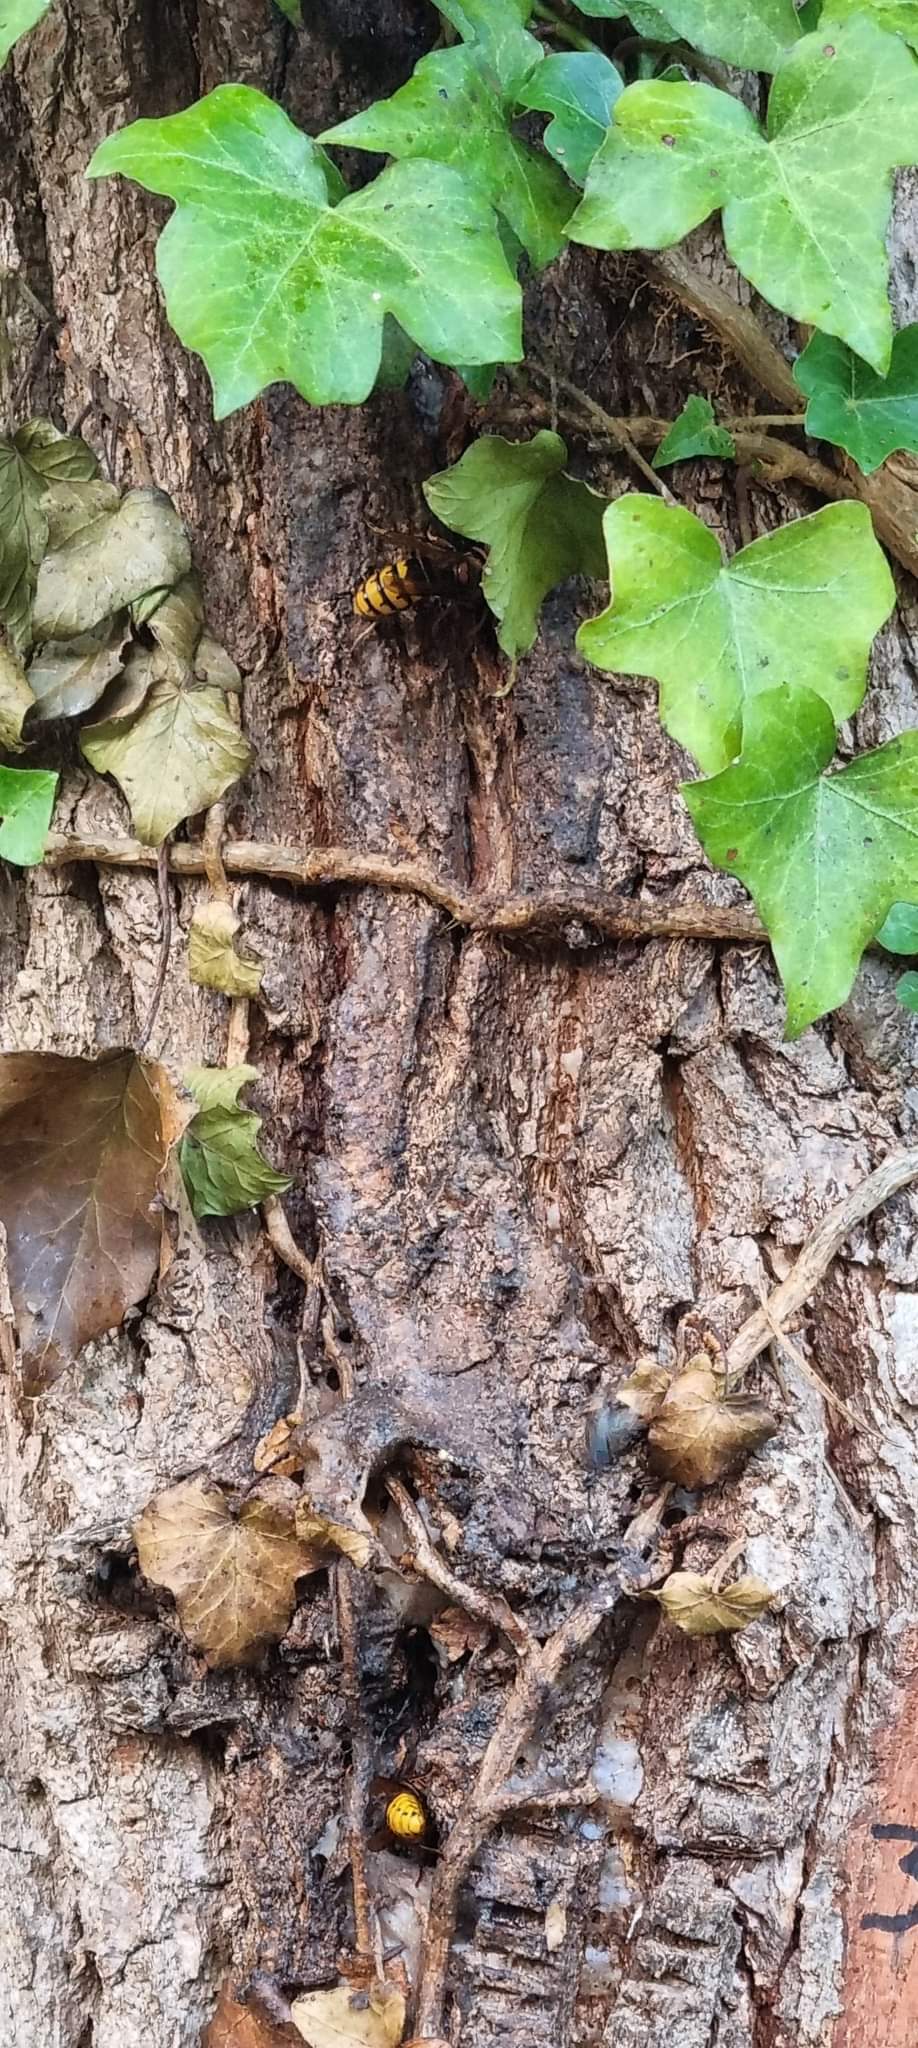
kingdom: Animalia
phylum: Arthropoda
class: Insecta
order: Hymenoptera
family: Vespidae
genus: Vespa
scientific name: Vespa crabro
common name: Hornet
